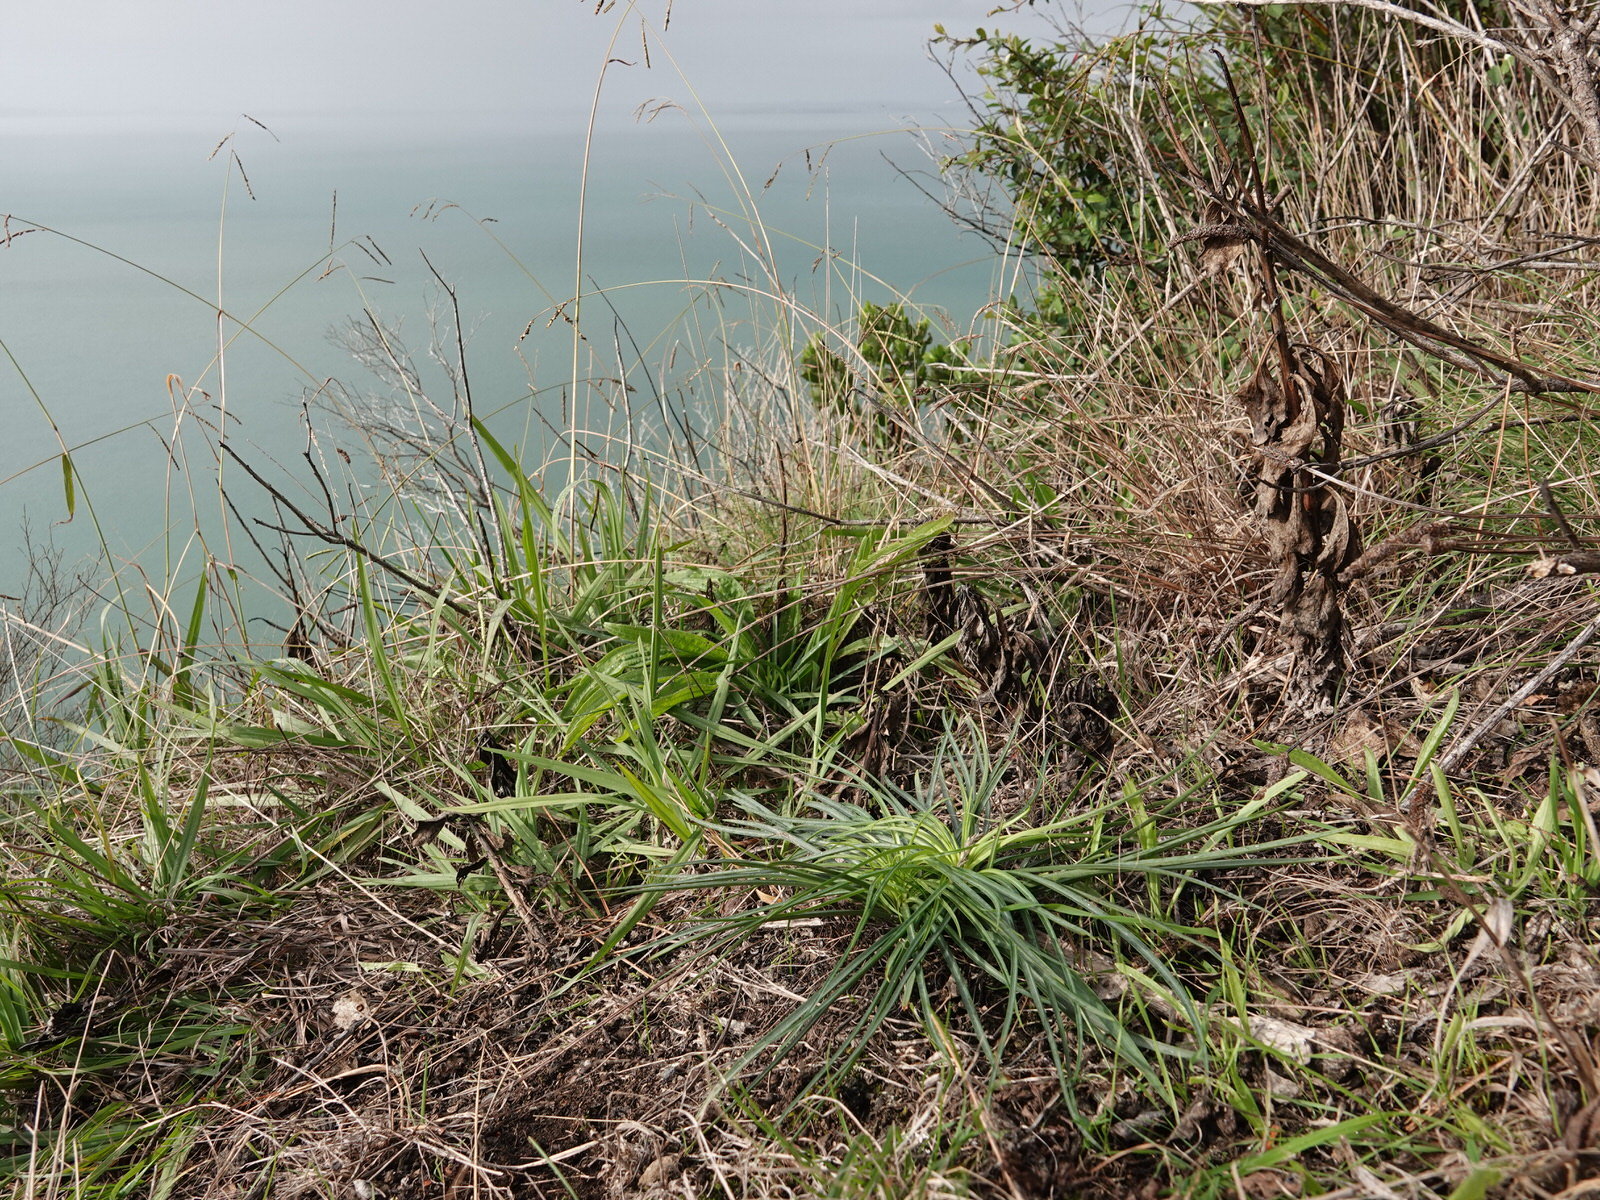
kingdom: Plantae
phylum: Tracheophyta
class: Liliopsida
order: Liliales
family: Liliaceae
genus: Lilium
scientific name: Lilium formosanum
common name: Formosa lily
